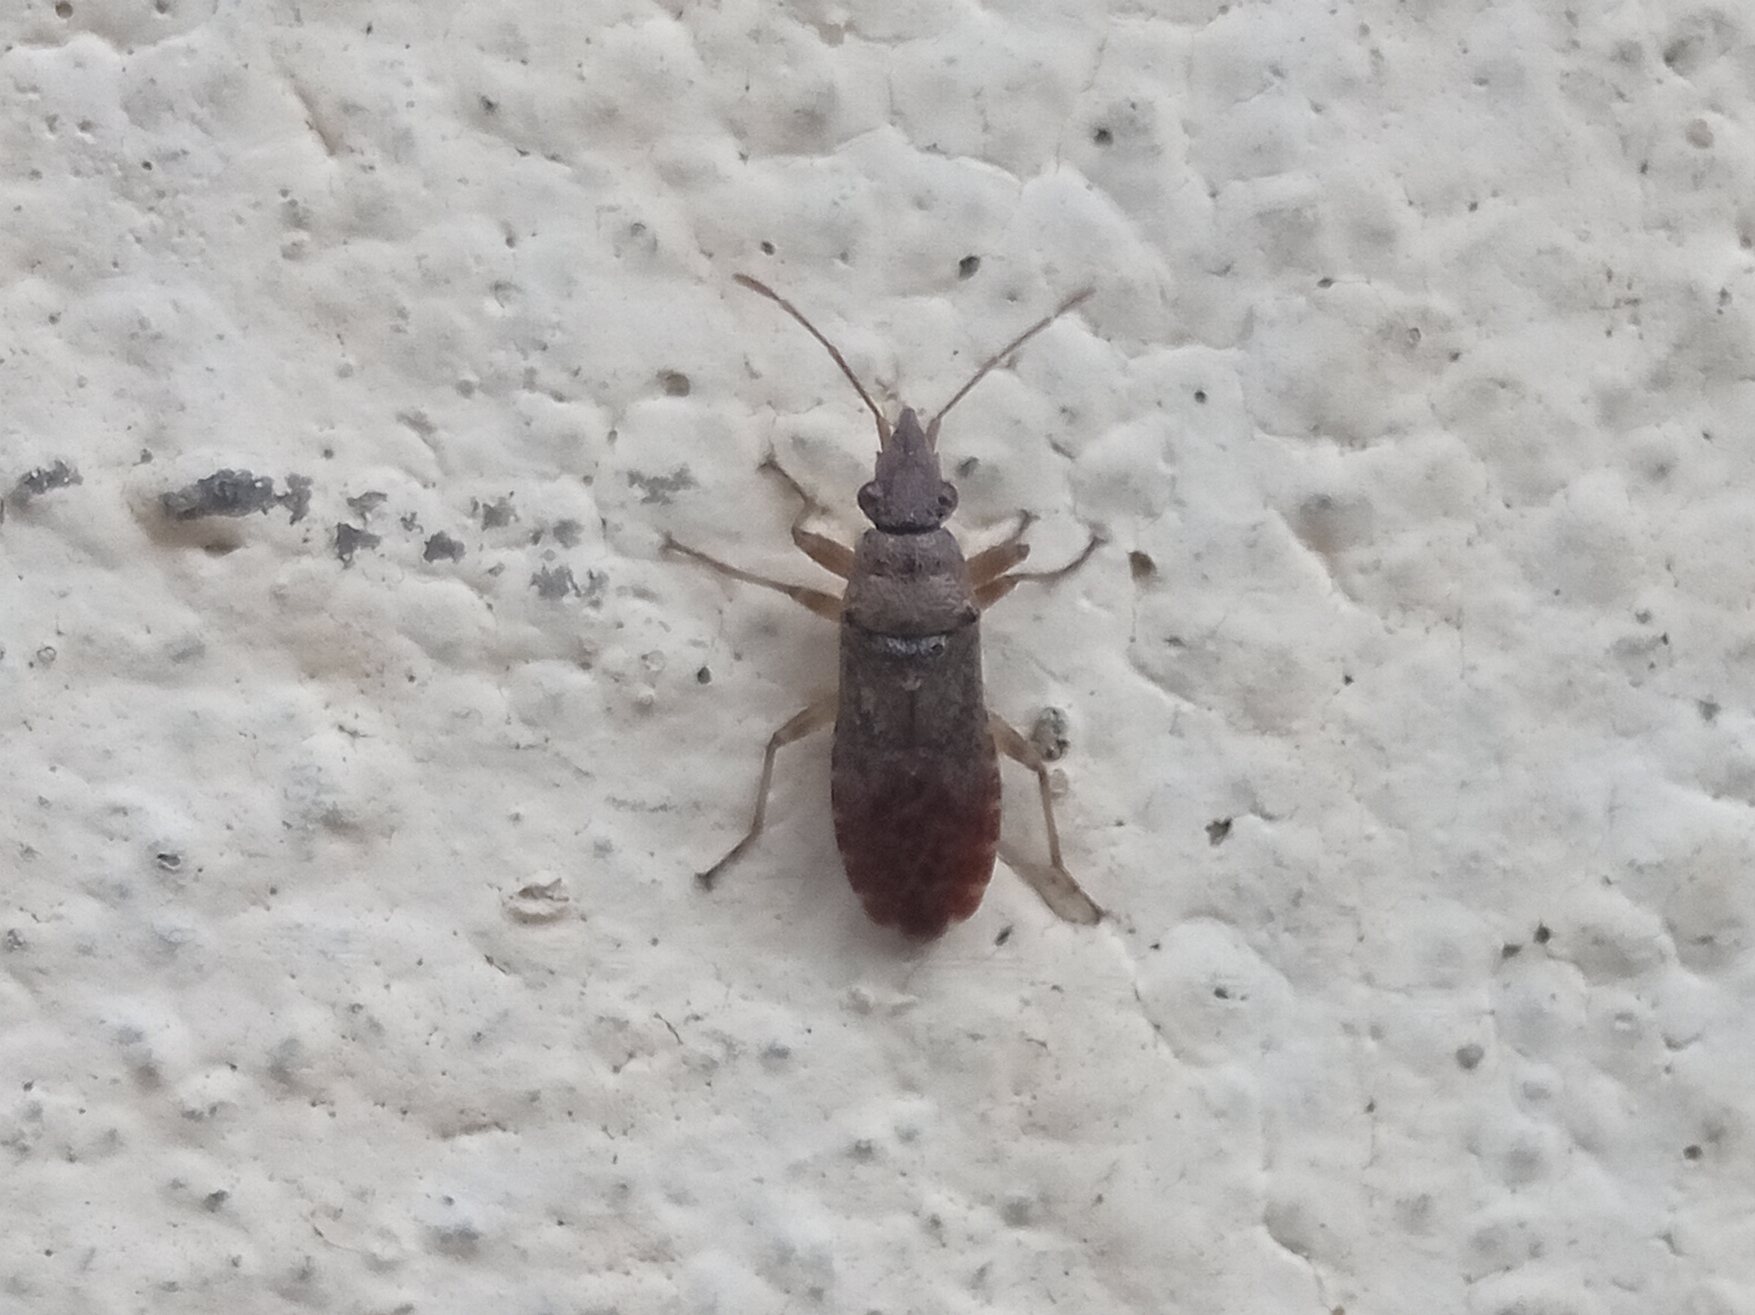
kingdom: Animalia
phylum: Arthropoda
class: Insecta
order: Hemiptera
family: Lygaeidae
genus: Orsillus
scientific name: Orsillus maculatus
